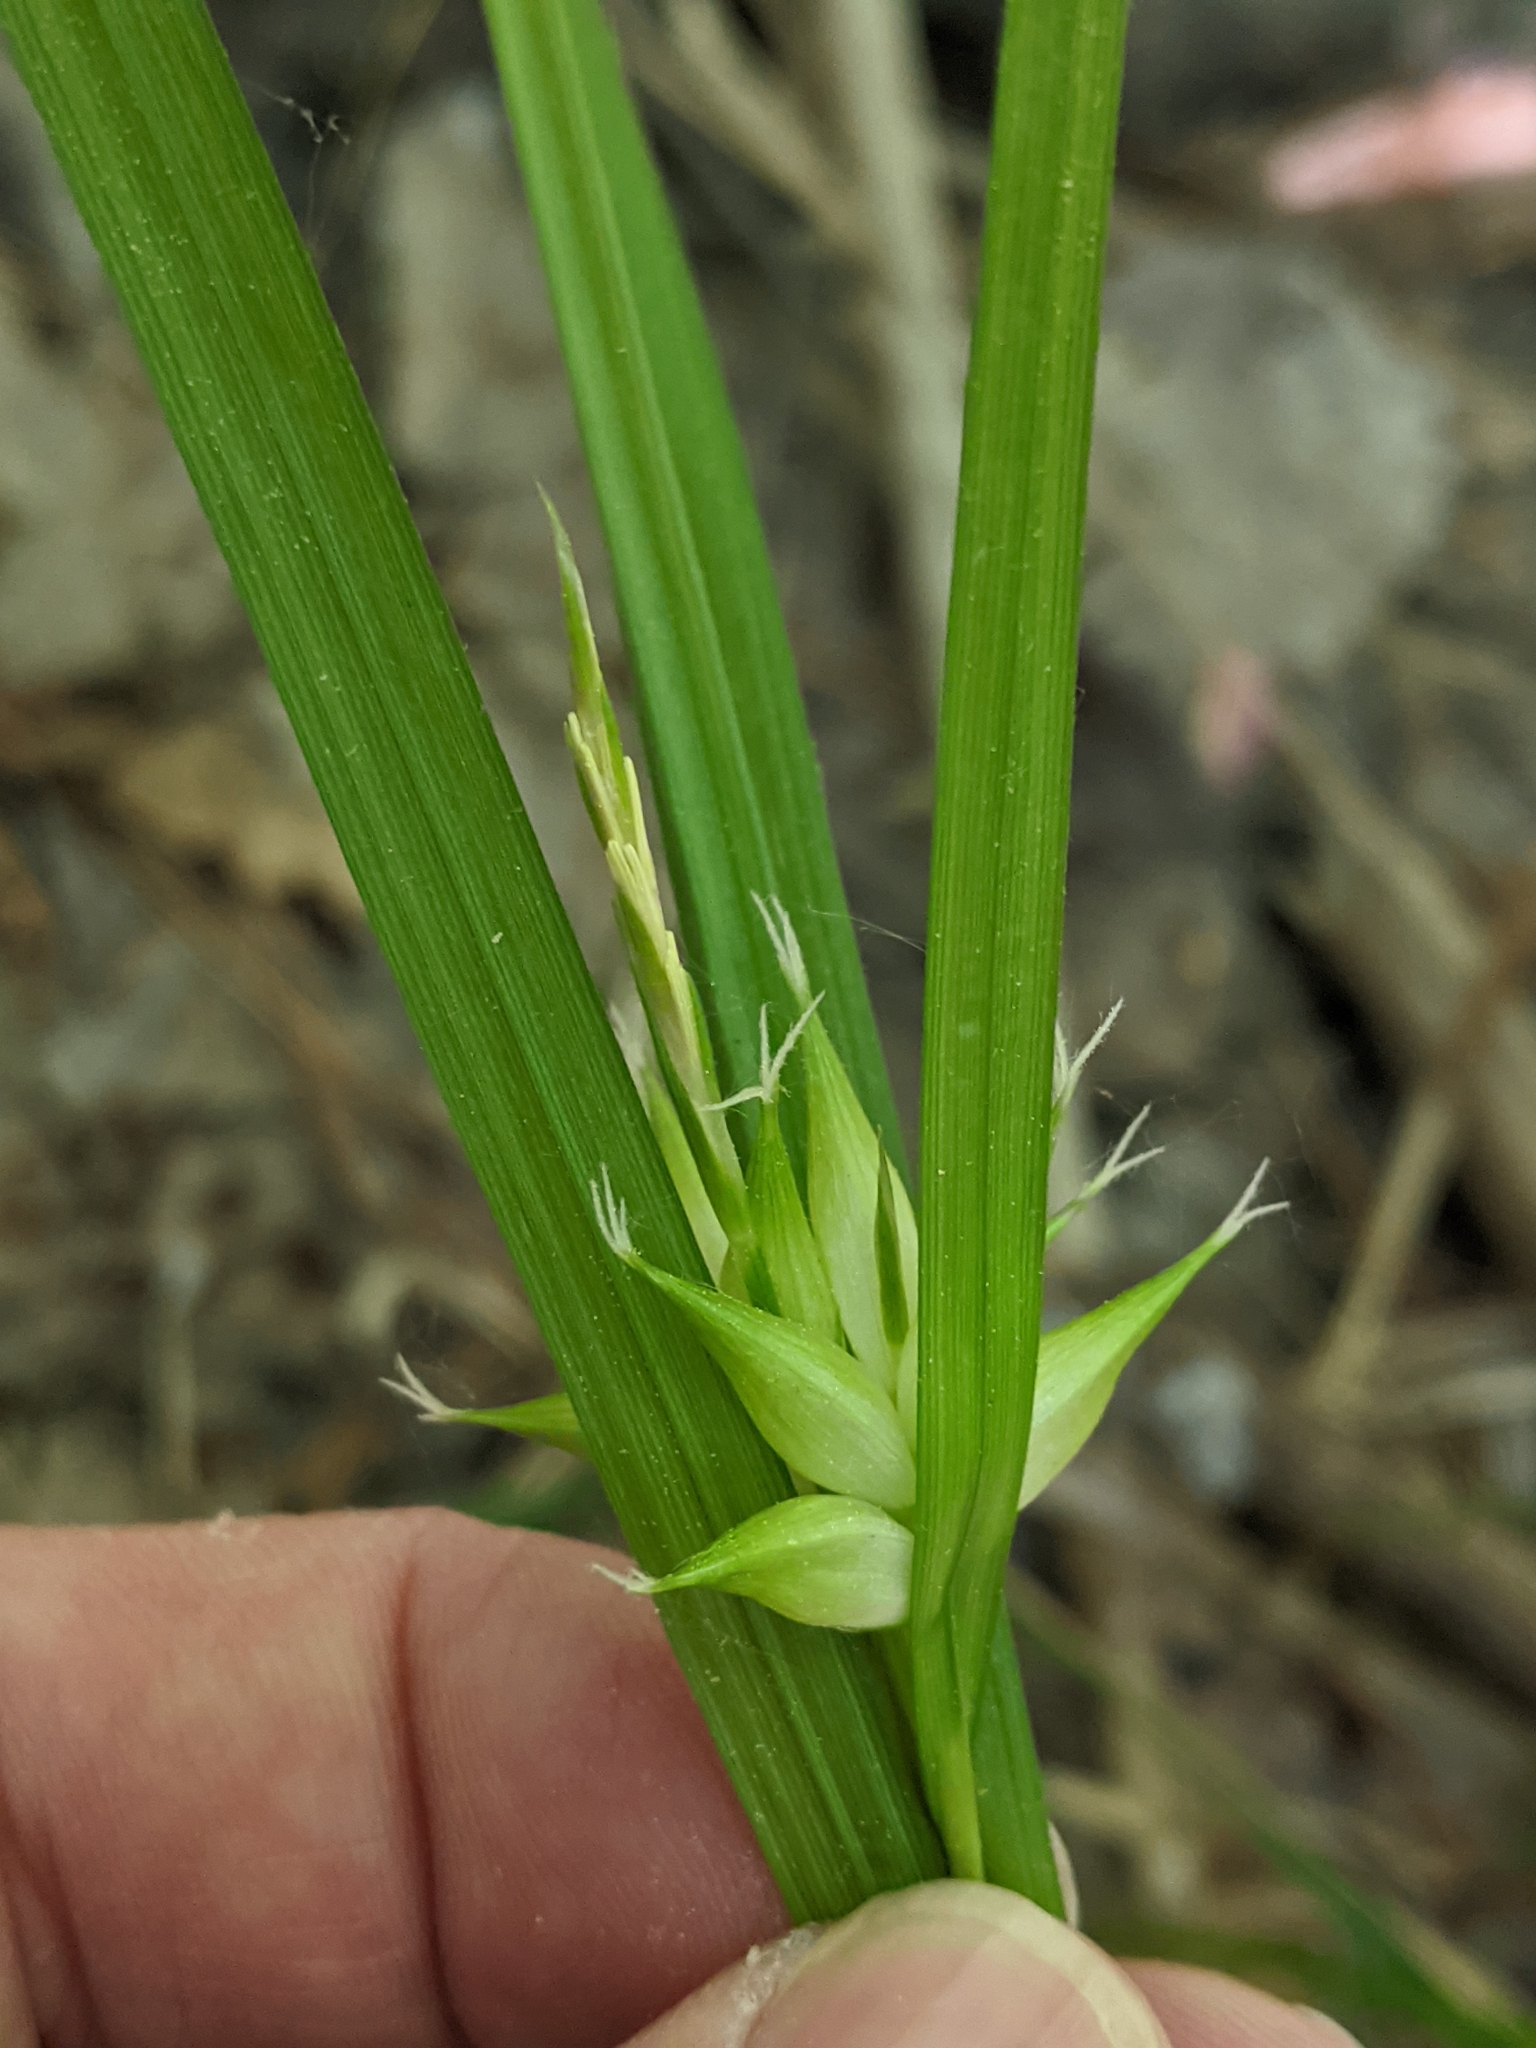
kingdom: Plantae
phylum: Tracheophyta
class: Liliopsida
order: Poales
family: Cyperaceae
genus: Carex
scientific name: Carex intumescens
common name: Greater bladder sedge
